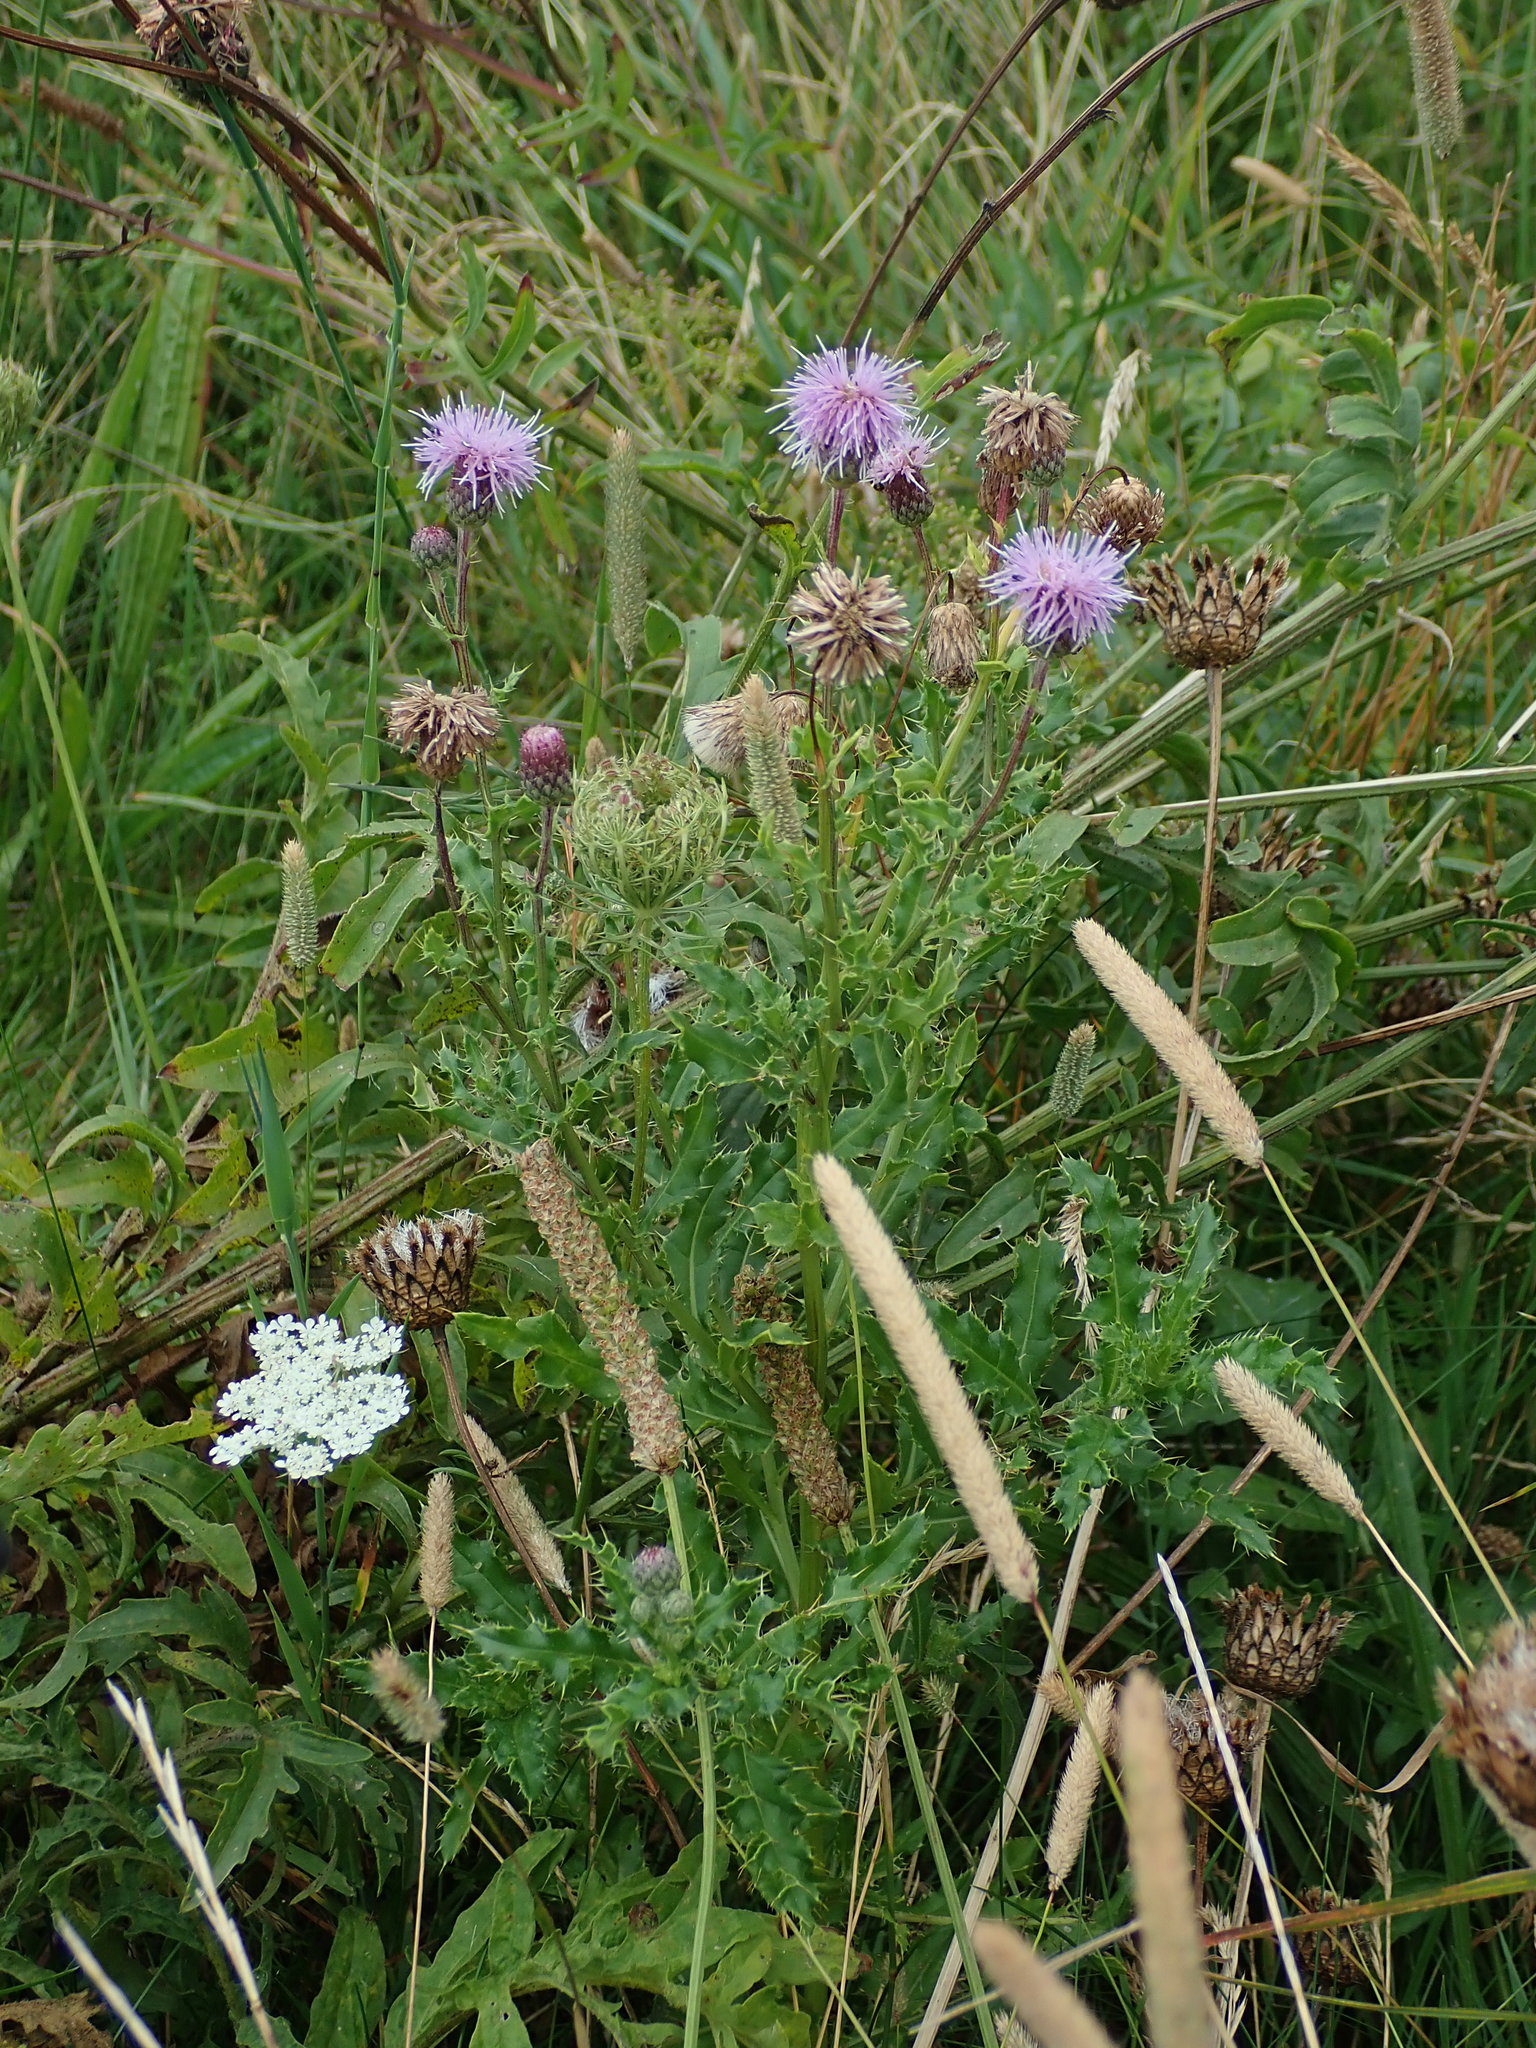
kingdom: Plantae
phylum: Tracheophyta
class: Magnoliopsida
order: Asterales
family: Asteraceae
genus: Cirsium
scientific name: Cirsium arvense
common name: Creeping thistle
